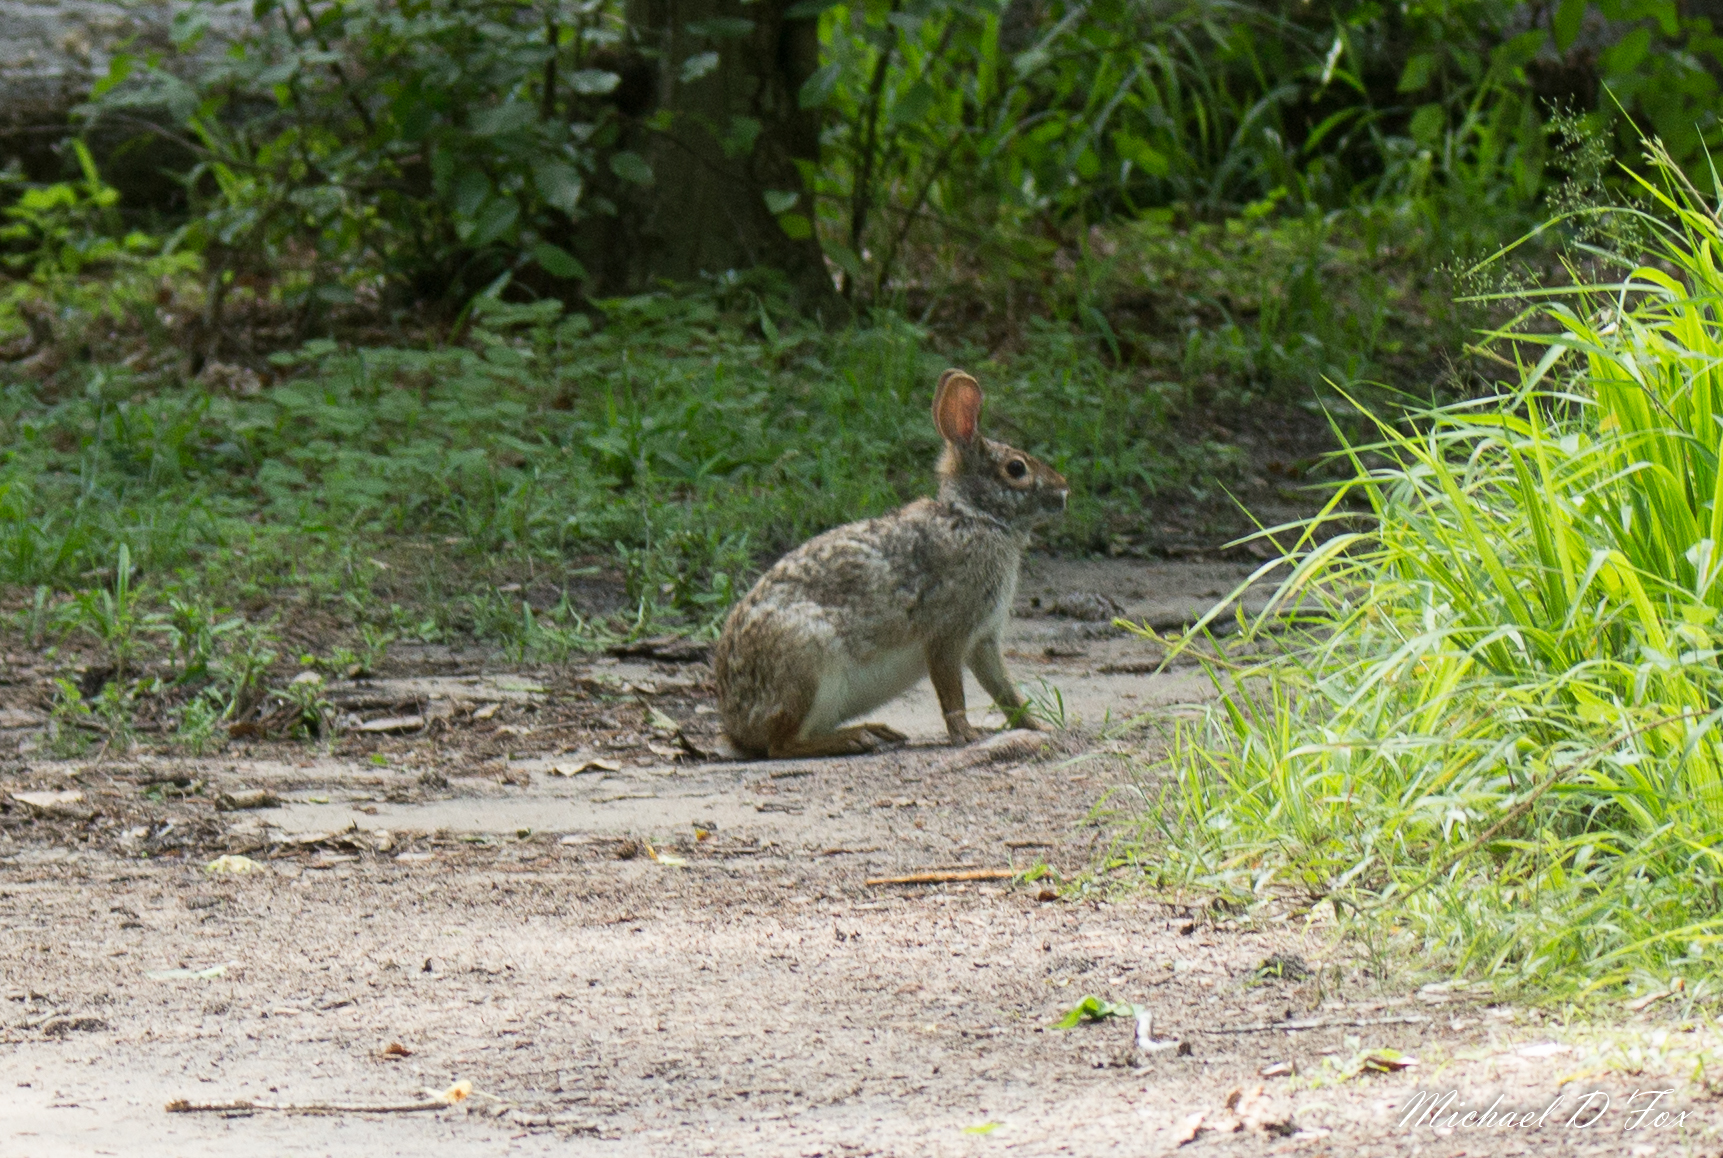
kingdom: Animalia
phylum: Chordata
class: Mammalia
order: Lagomorpha
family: Leporidae
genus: Sylvilagus
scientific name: Sylvilagus floridanus
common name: Eastern cottontail
